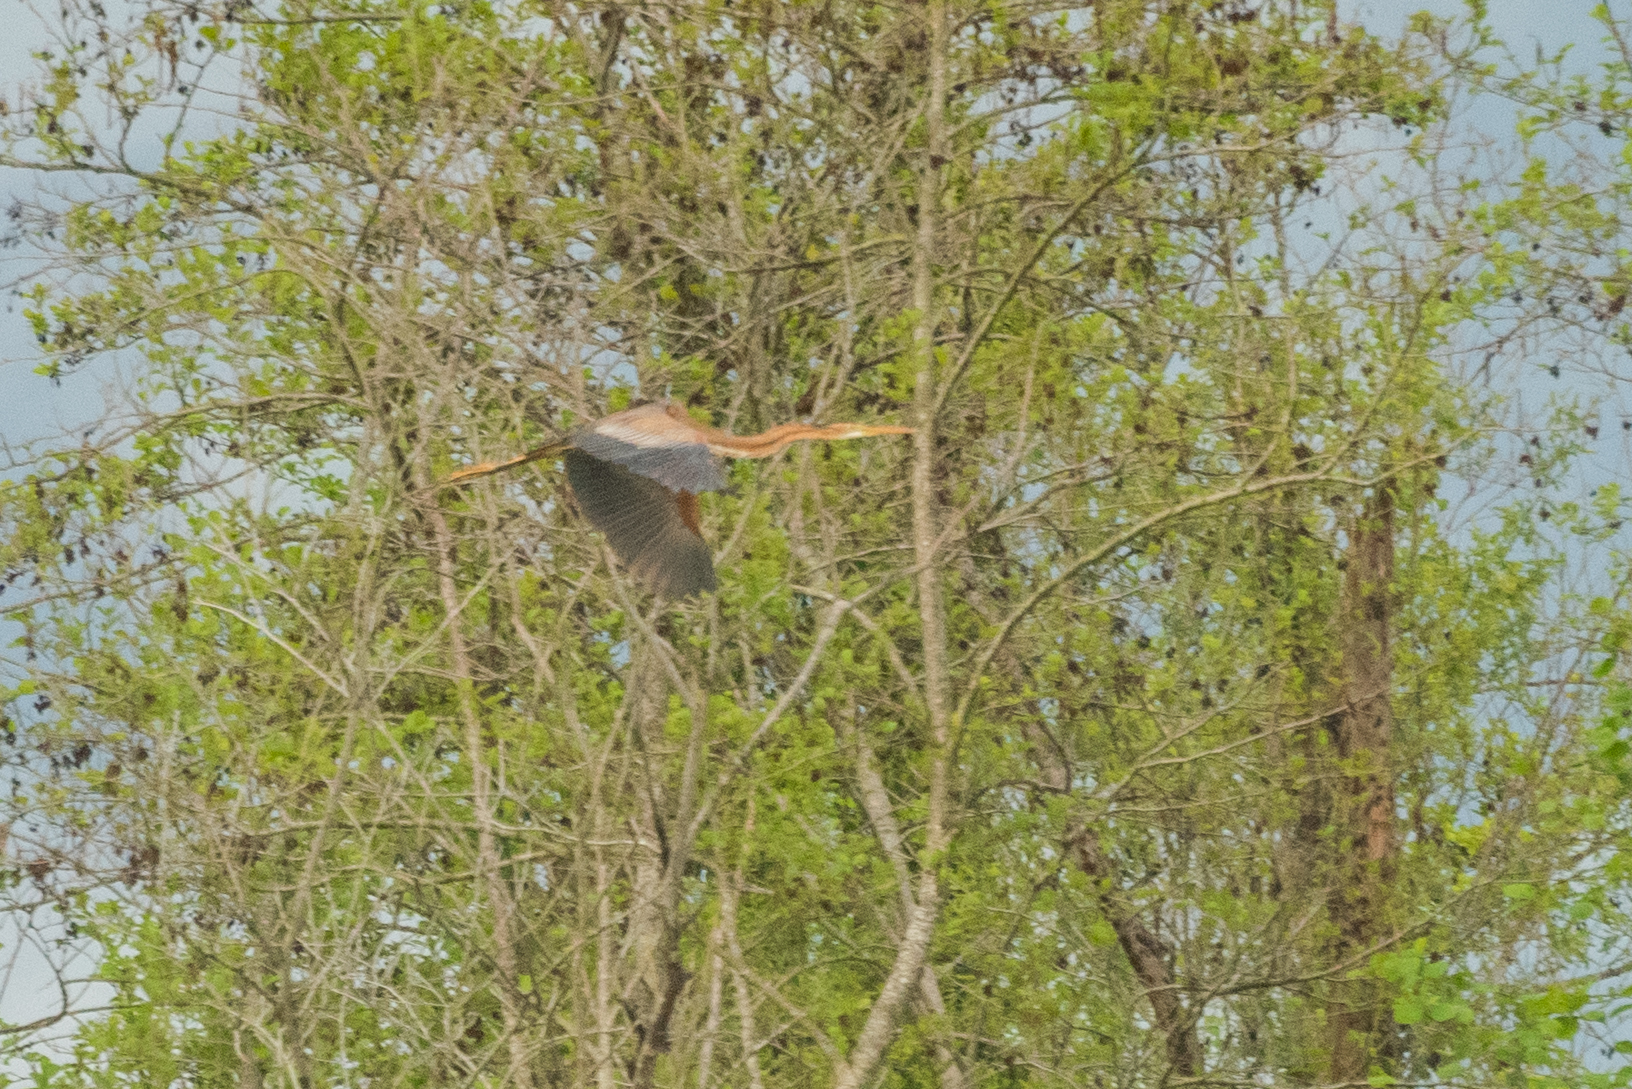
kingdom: Animalia
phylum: Chordata
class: Aves
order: Pelecaniformes
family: Ardeidae
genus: Ardea
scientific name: Ardea purpurea
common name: Purple heron
